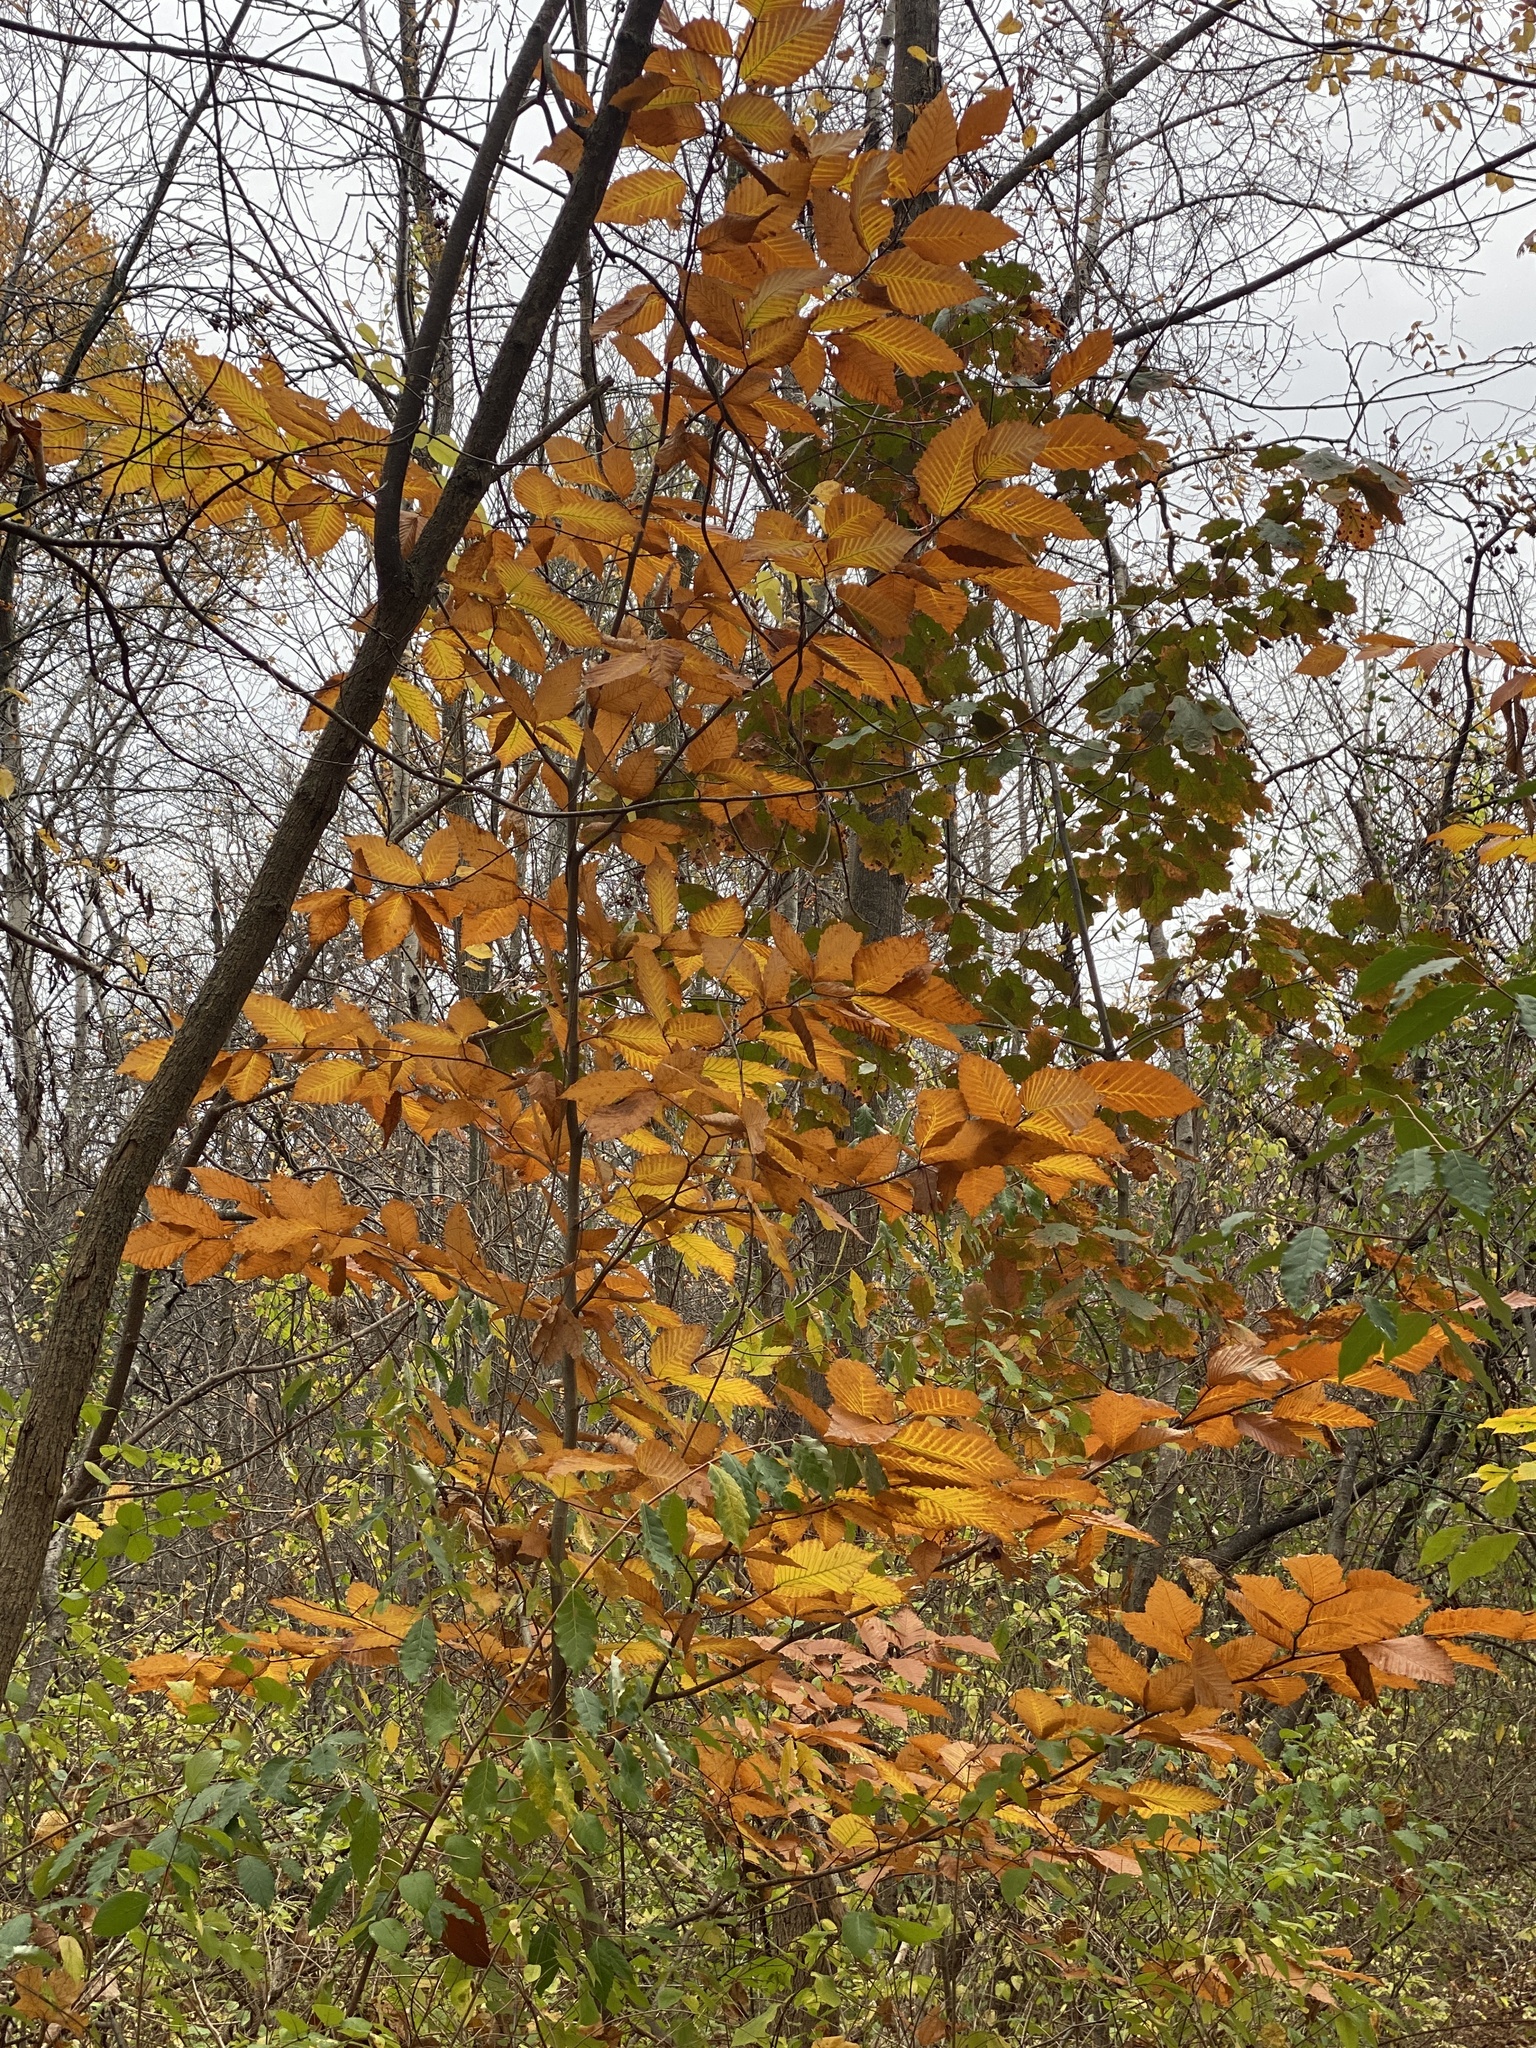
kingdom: Plantae
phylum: Tracheophyta
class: Magnoliopsida
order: Fagales
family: Fagaceae
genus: Fagus
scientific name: Fagus grandifolia
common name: American beech
